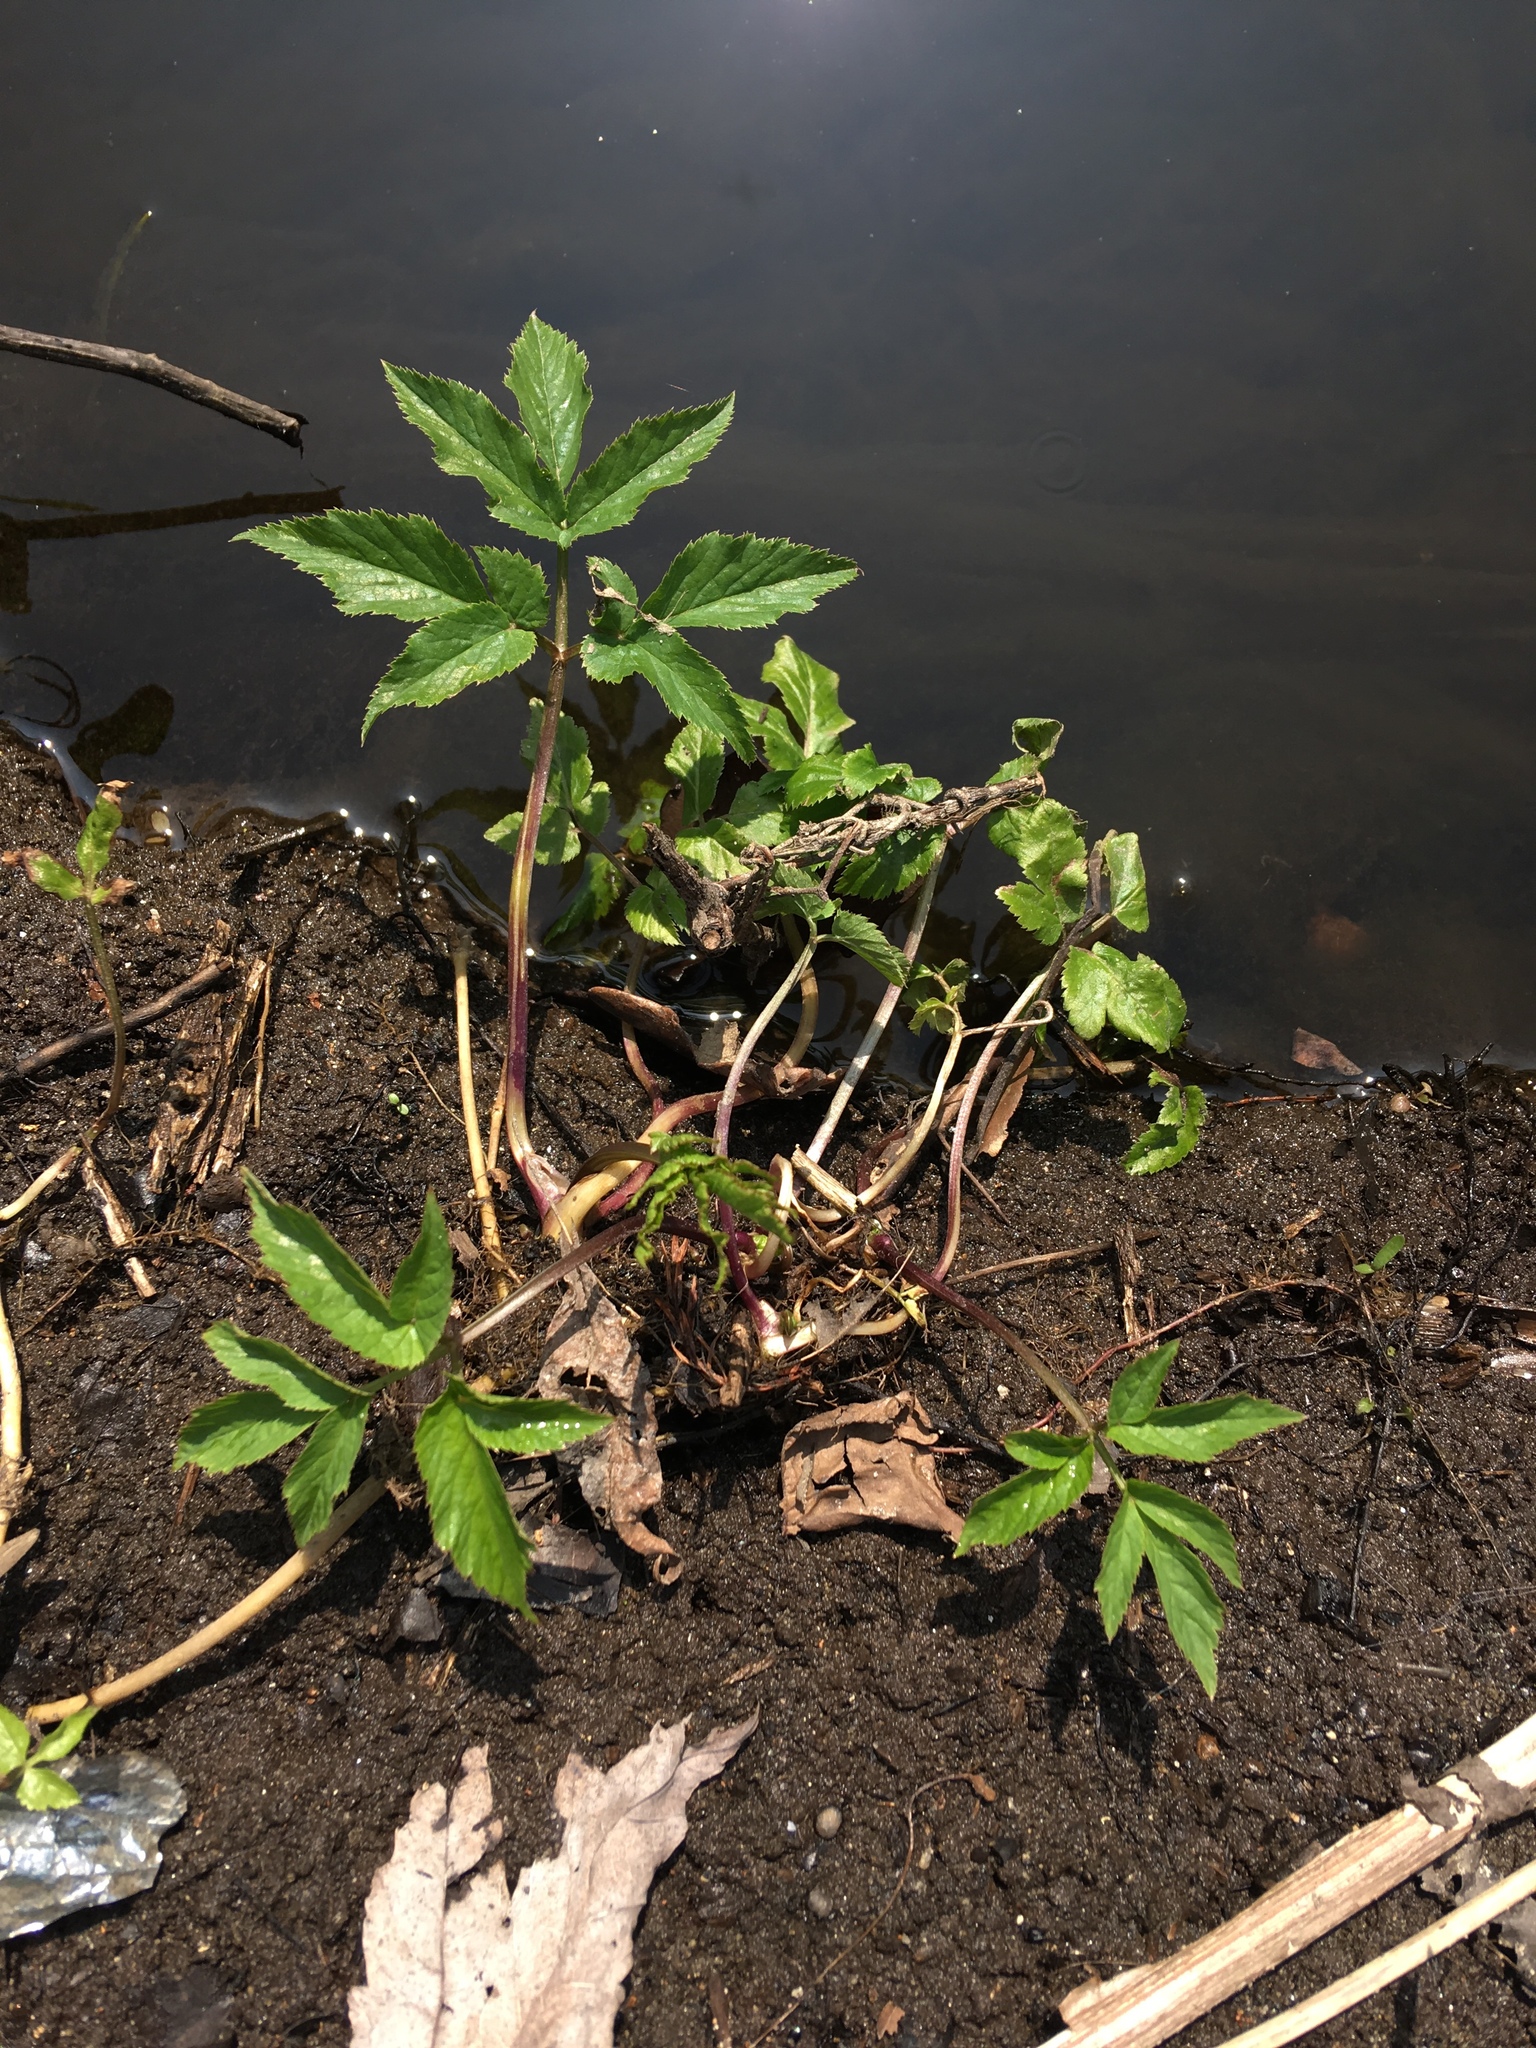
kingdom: Plantae
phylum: Tracheophyta
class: Magnoliopsida
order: Apiales
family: Apiaceae
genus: Aegopodium
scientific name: Aegopodium podagraria
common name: Ground-elder
